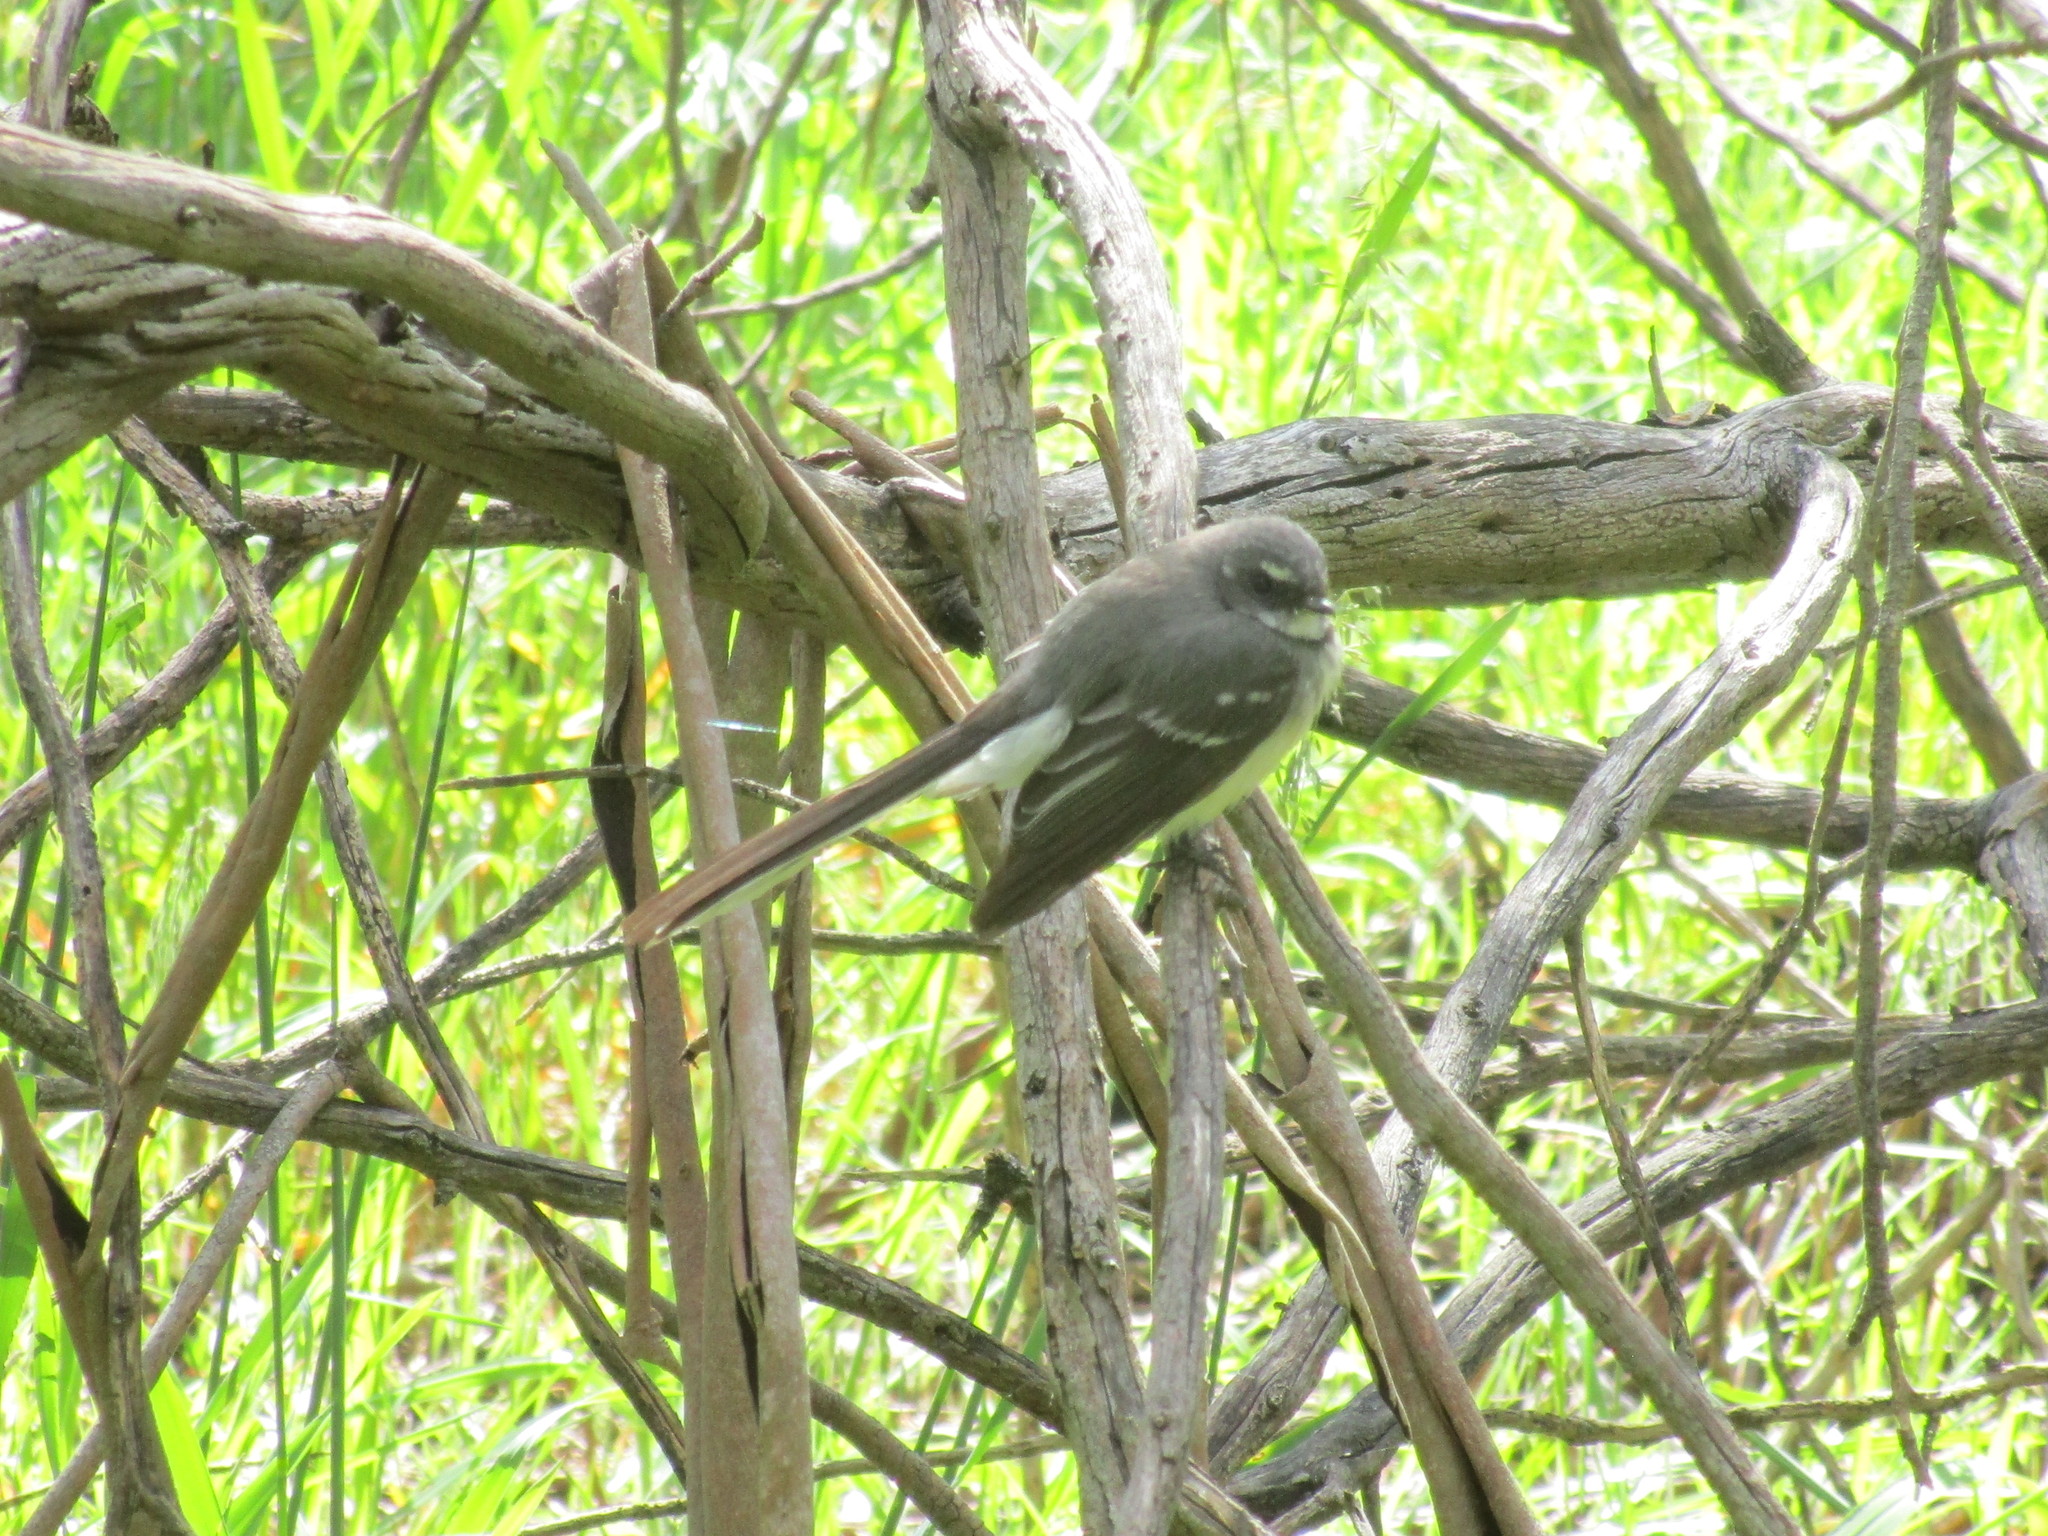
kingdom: Animalia
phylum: Chordata
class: Aves
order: Passeriformes
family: Rhipiduridae
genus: Rhipidura
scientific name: Rhipidura albiscapa
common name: Grey fantail
